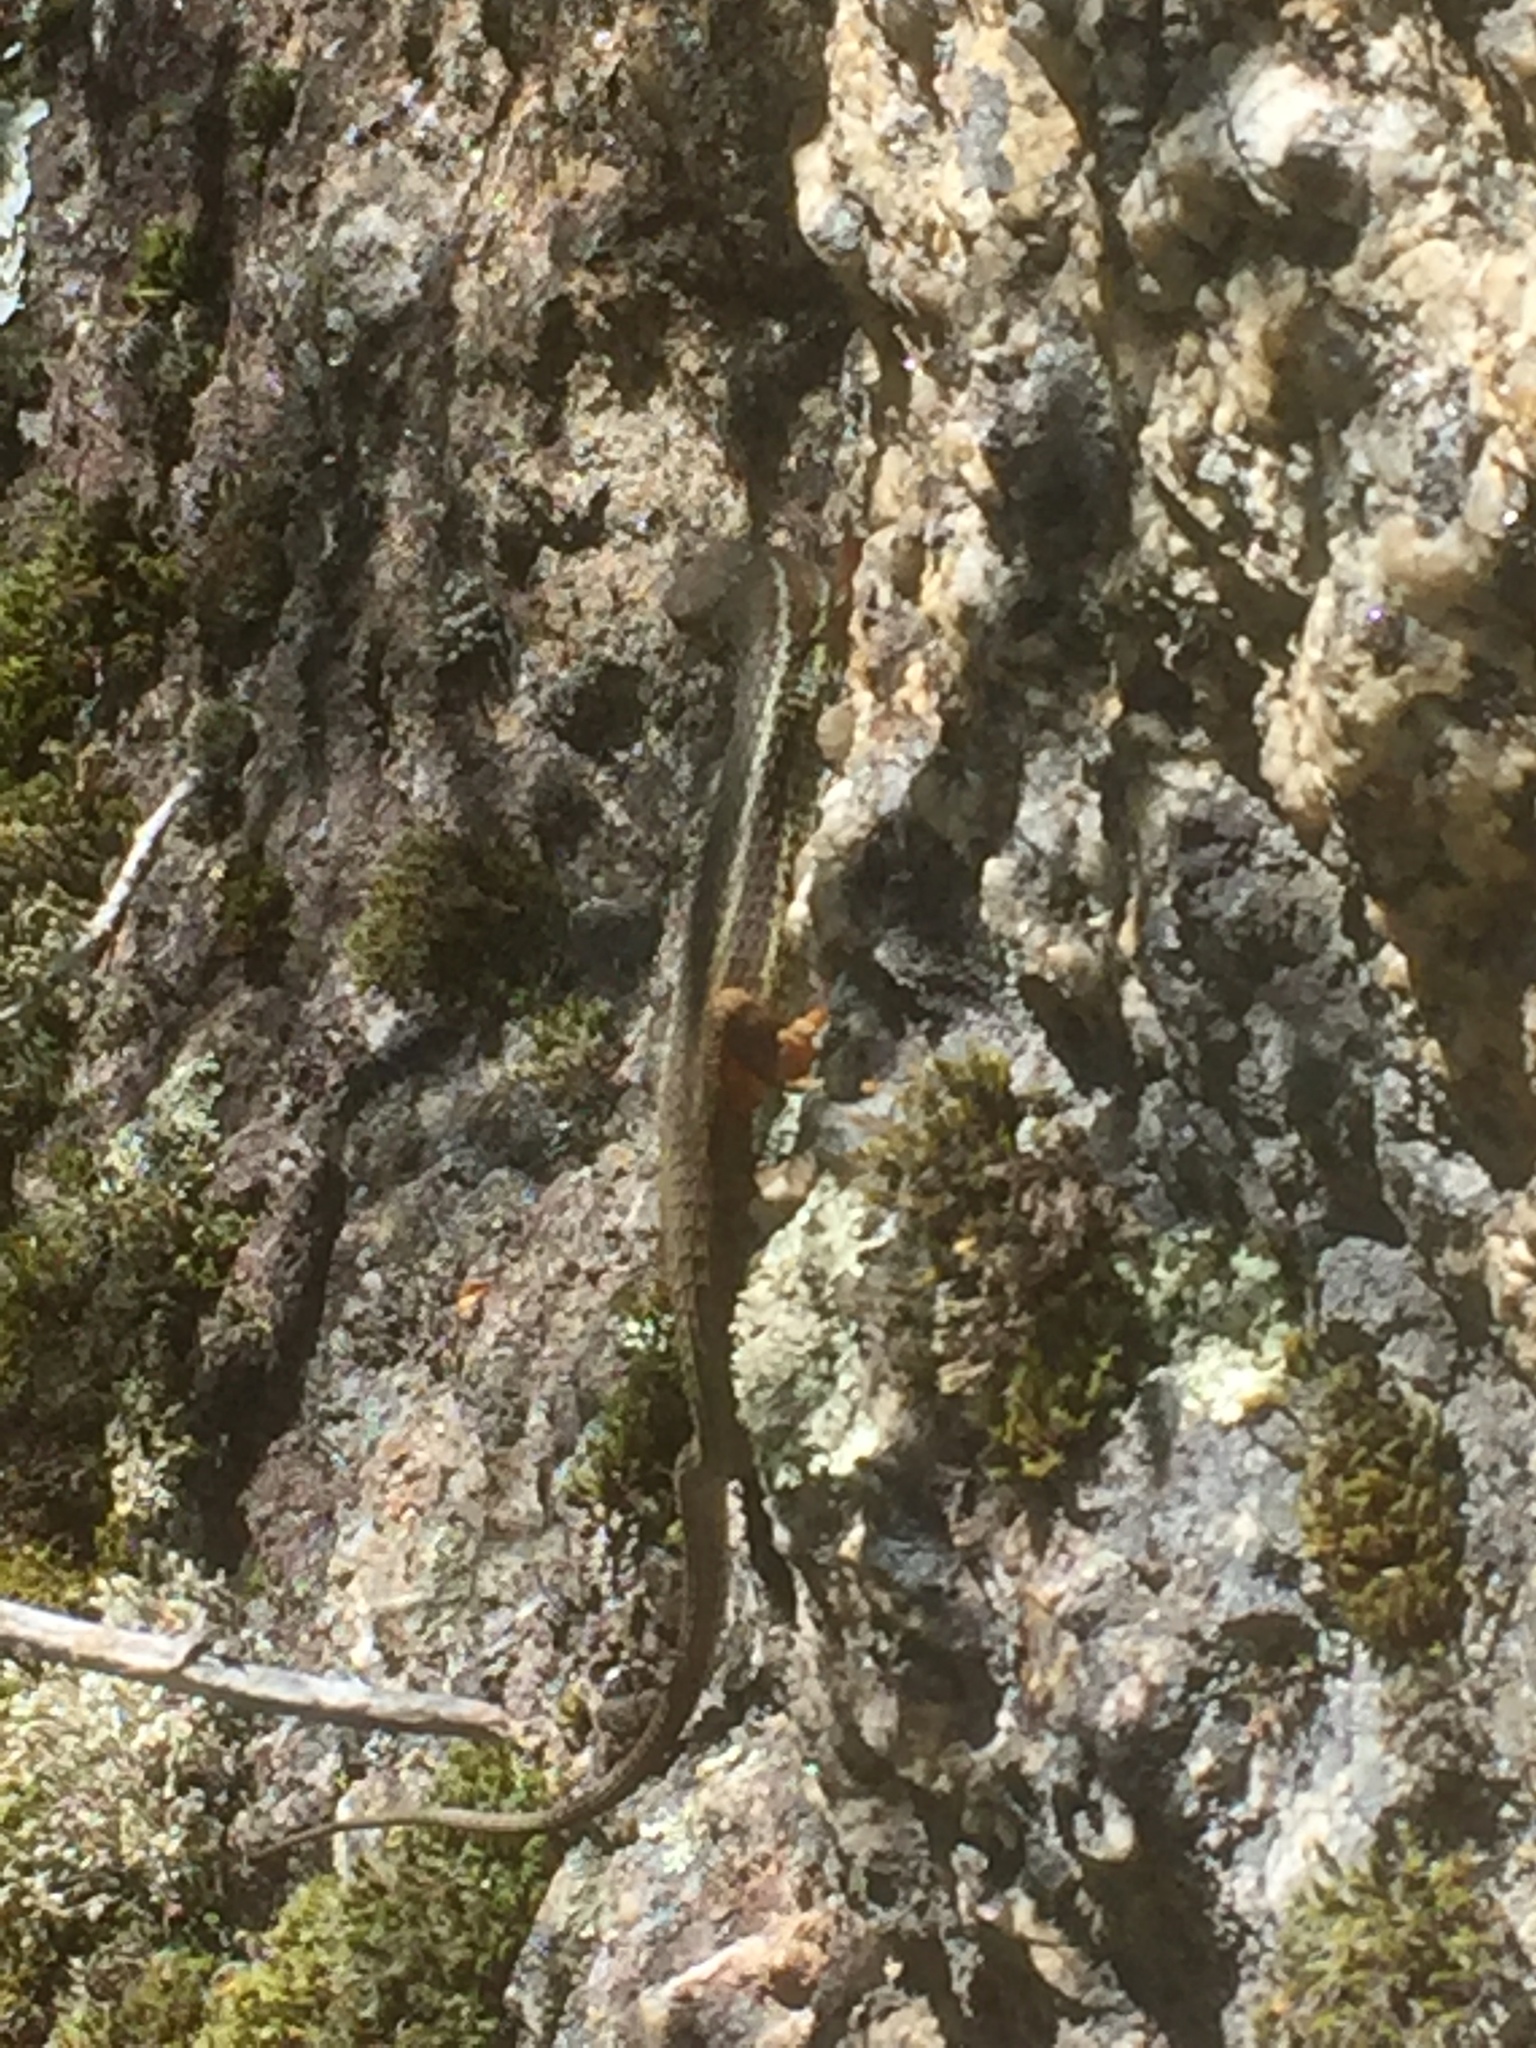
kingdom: Animalia
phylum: Chordata
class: Squamata
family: Lacertidae
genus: Psammodromus
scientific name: Psammodromus algirus
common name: Algerian psammodromus
